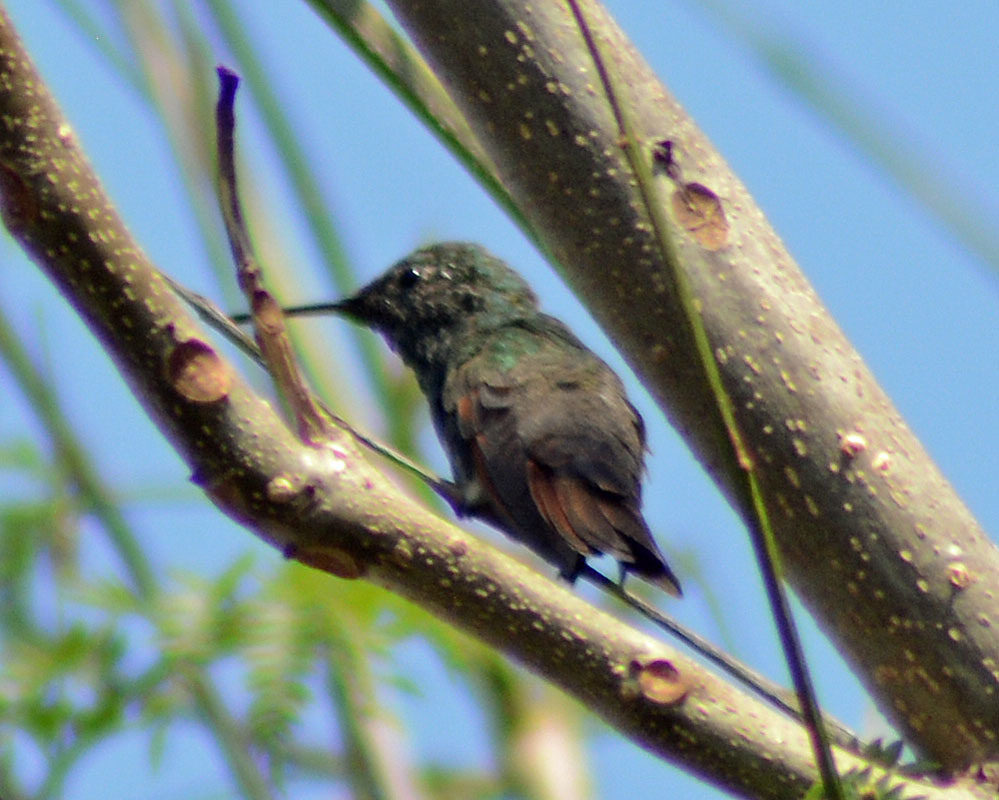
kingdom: Animalia
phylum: Chordata
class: Aves
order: Apodiformes
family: Trochilidae
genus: Saucerottia
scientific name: Saucerottia beryllina
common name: Berylline hummingbird
